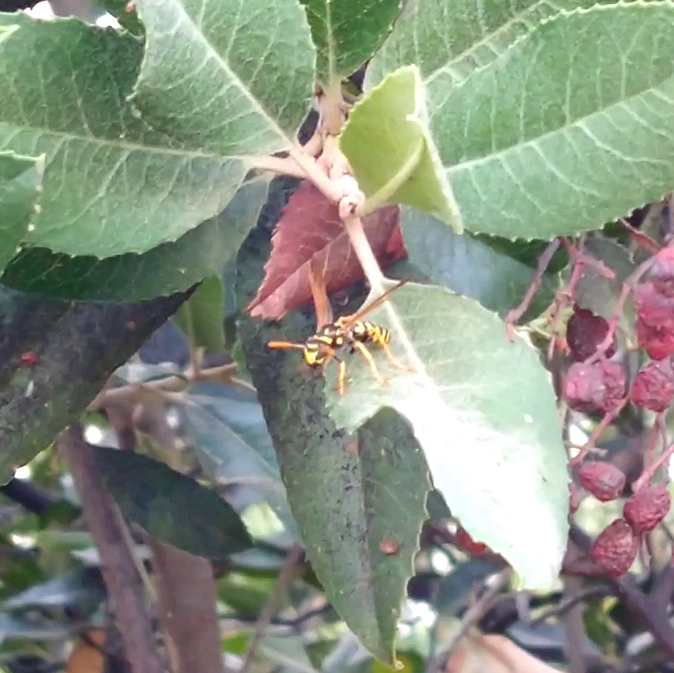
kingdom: Animalia
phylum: Arthropoda
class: Insecta
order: Hymenoptera
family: Eumenidae
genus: Polistes
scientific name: Polistes dominula
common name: Paper wasp
